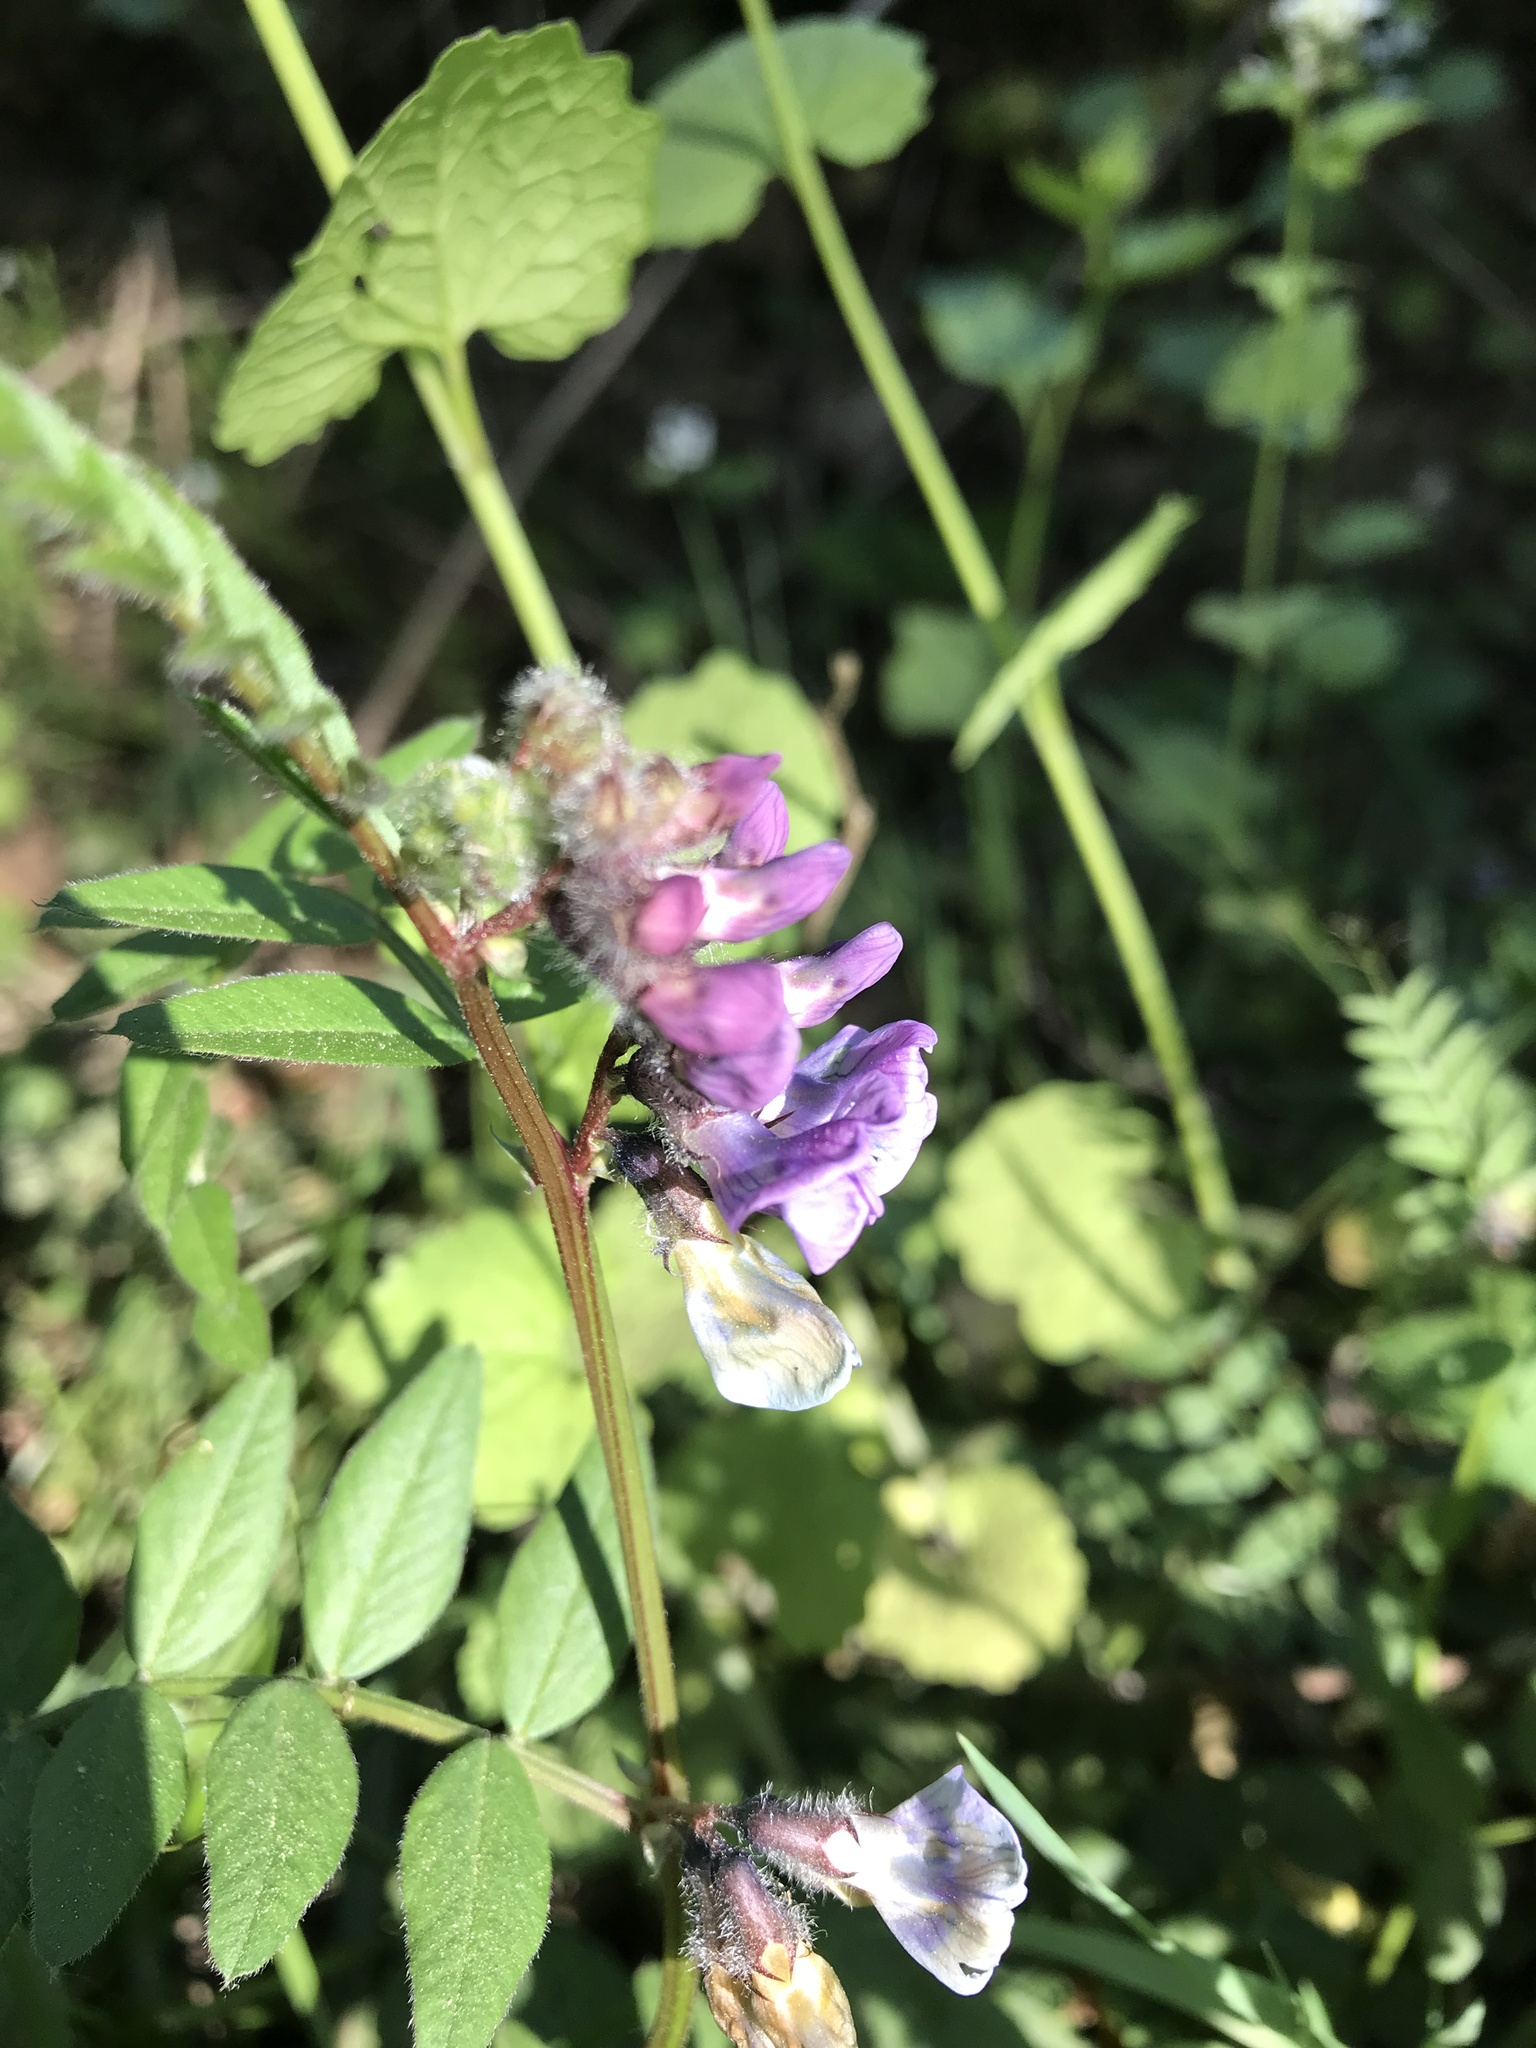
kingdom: Plantae
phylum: Tracheophyta
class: Magnoliopsida
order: Fabales
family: Fabaceae
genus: Vicia
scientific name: Vicia sepium
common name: Bush vetch
